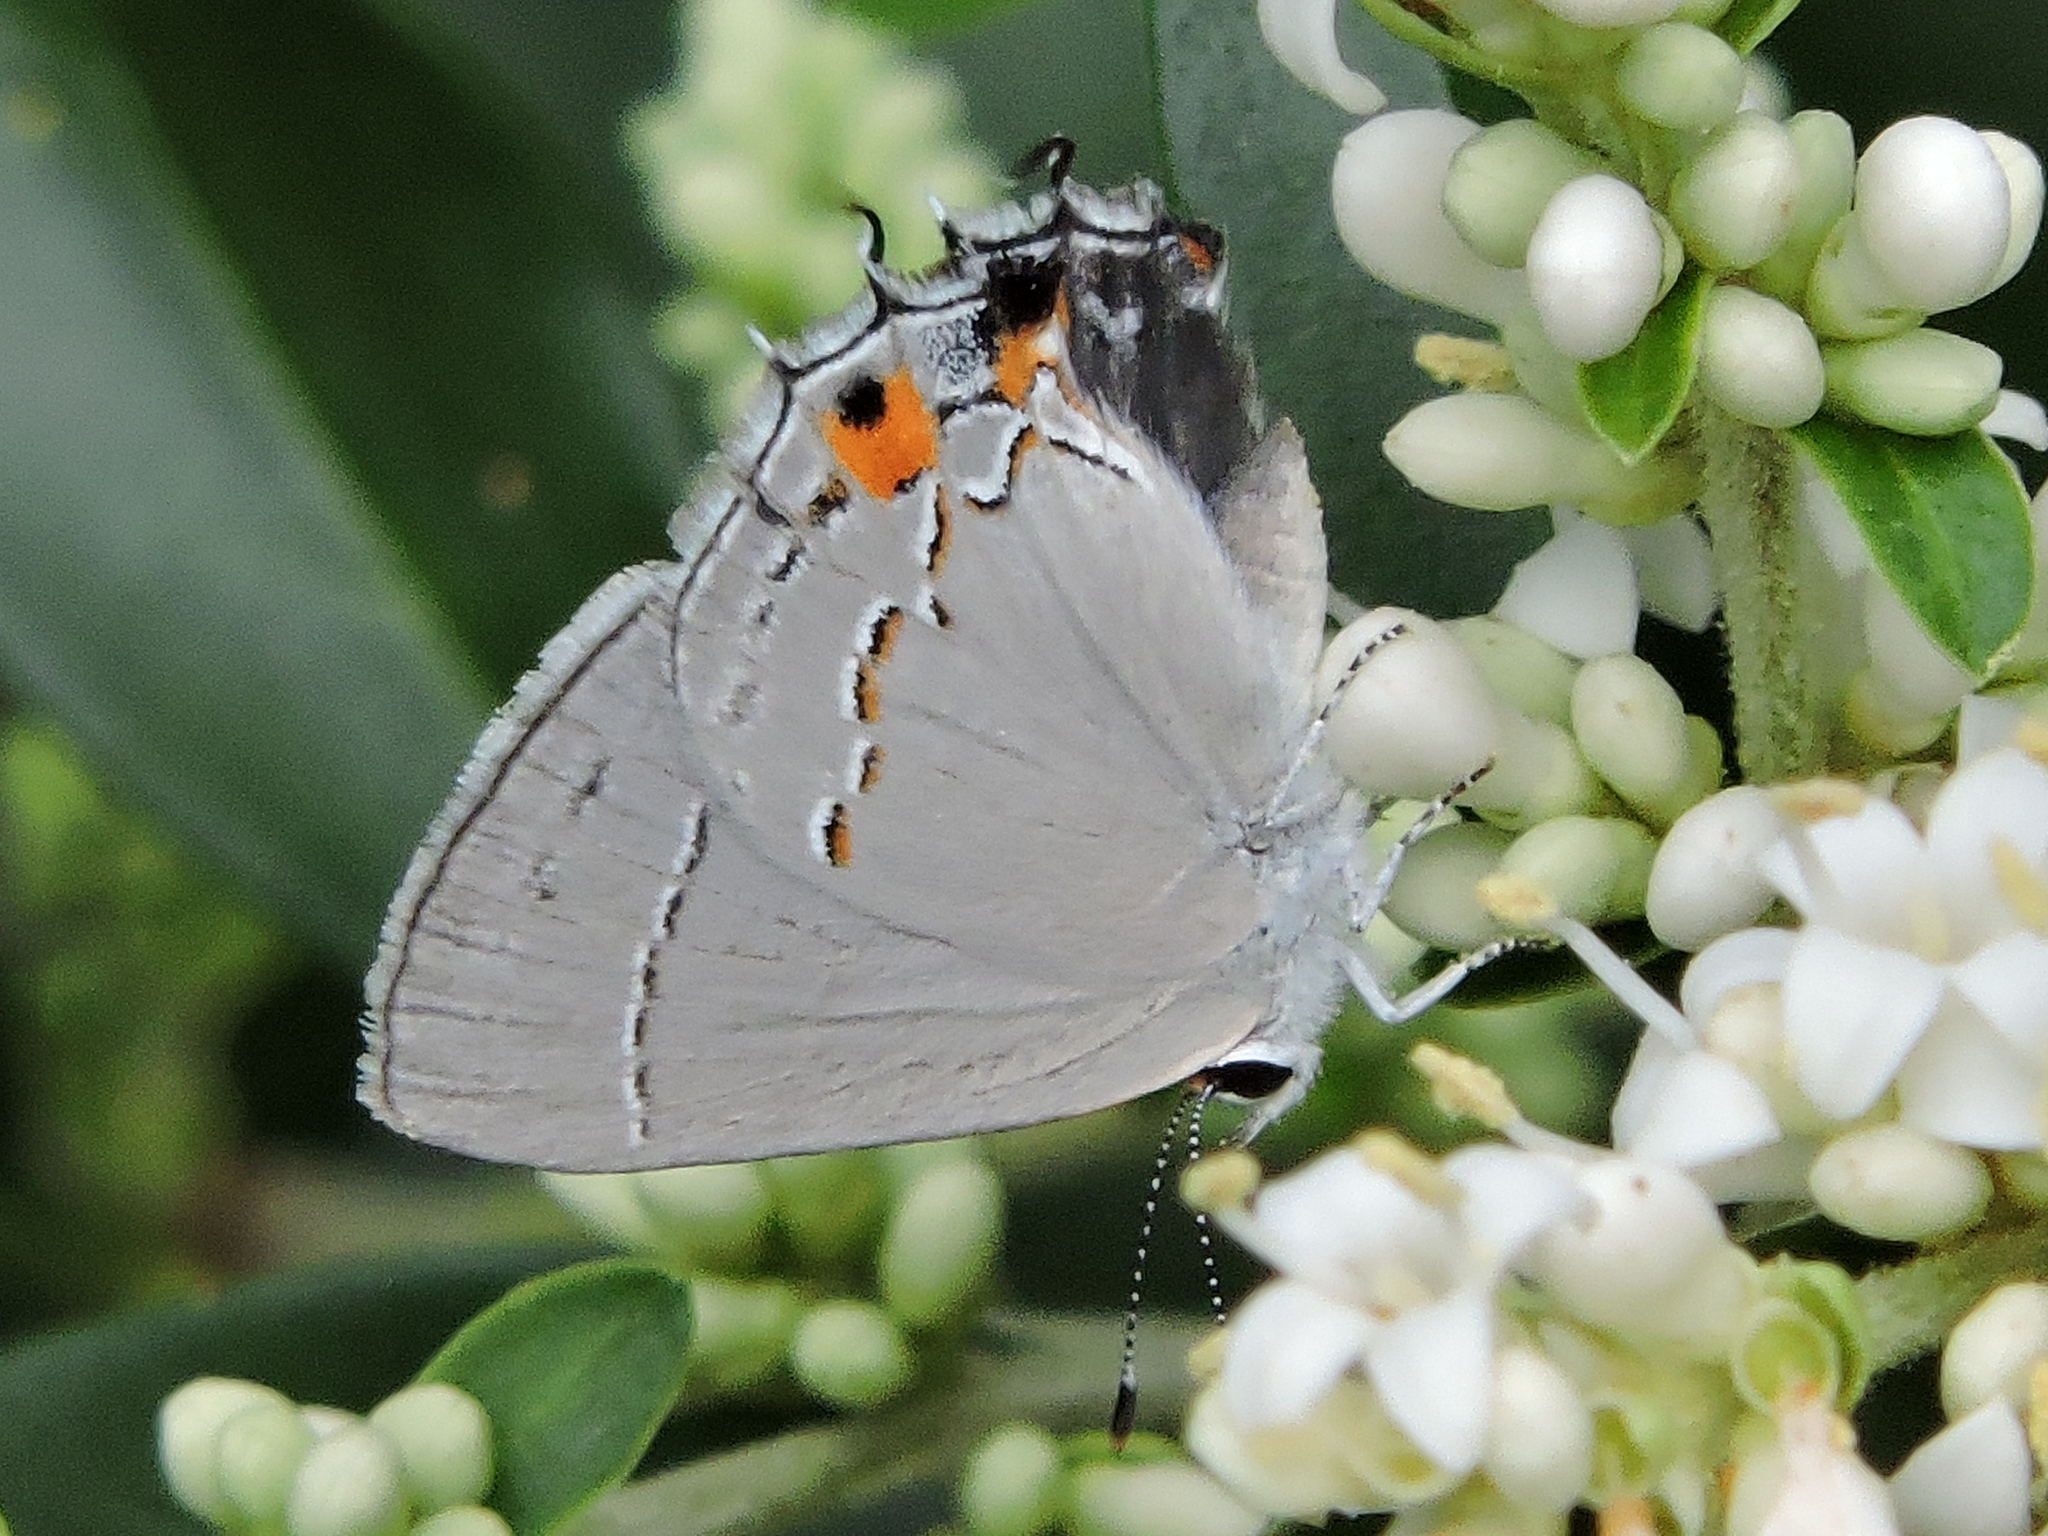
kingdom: Animalia
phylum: Arthropoda
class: Insecta
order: Lepidoptera
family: Lycaenidae
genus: Strymon
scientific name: Strymon melinus
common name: Gray hairstreak
